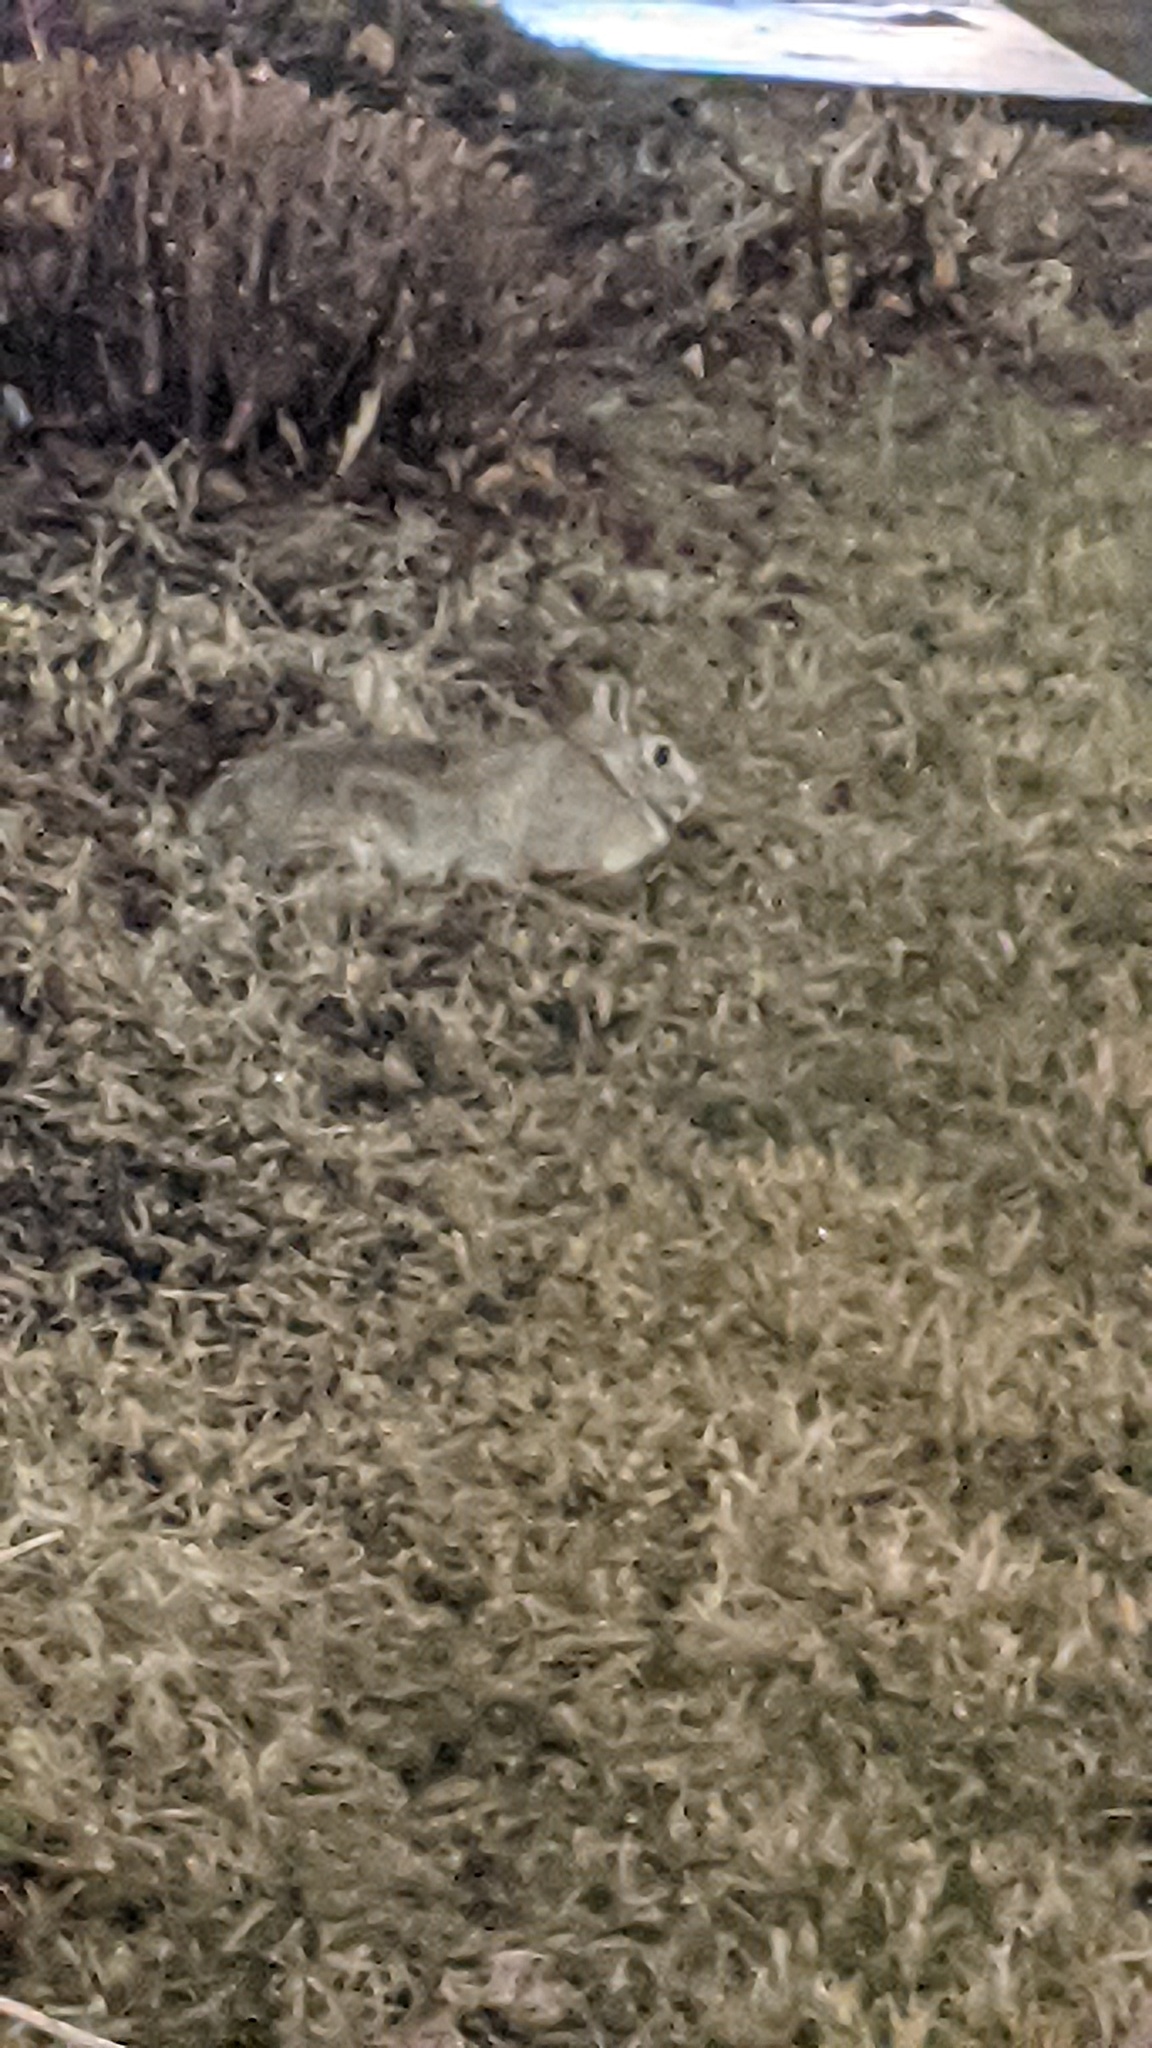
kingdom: Animalia
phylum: Chordata
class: Mammalia
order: Lagomorpha
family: Leporidae
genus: Sylvilagus
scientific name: Sylvilagus floridanus
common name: Eastern cottontail
